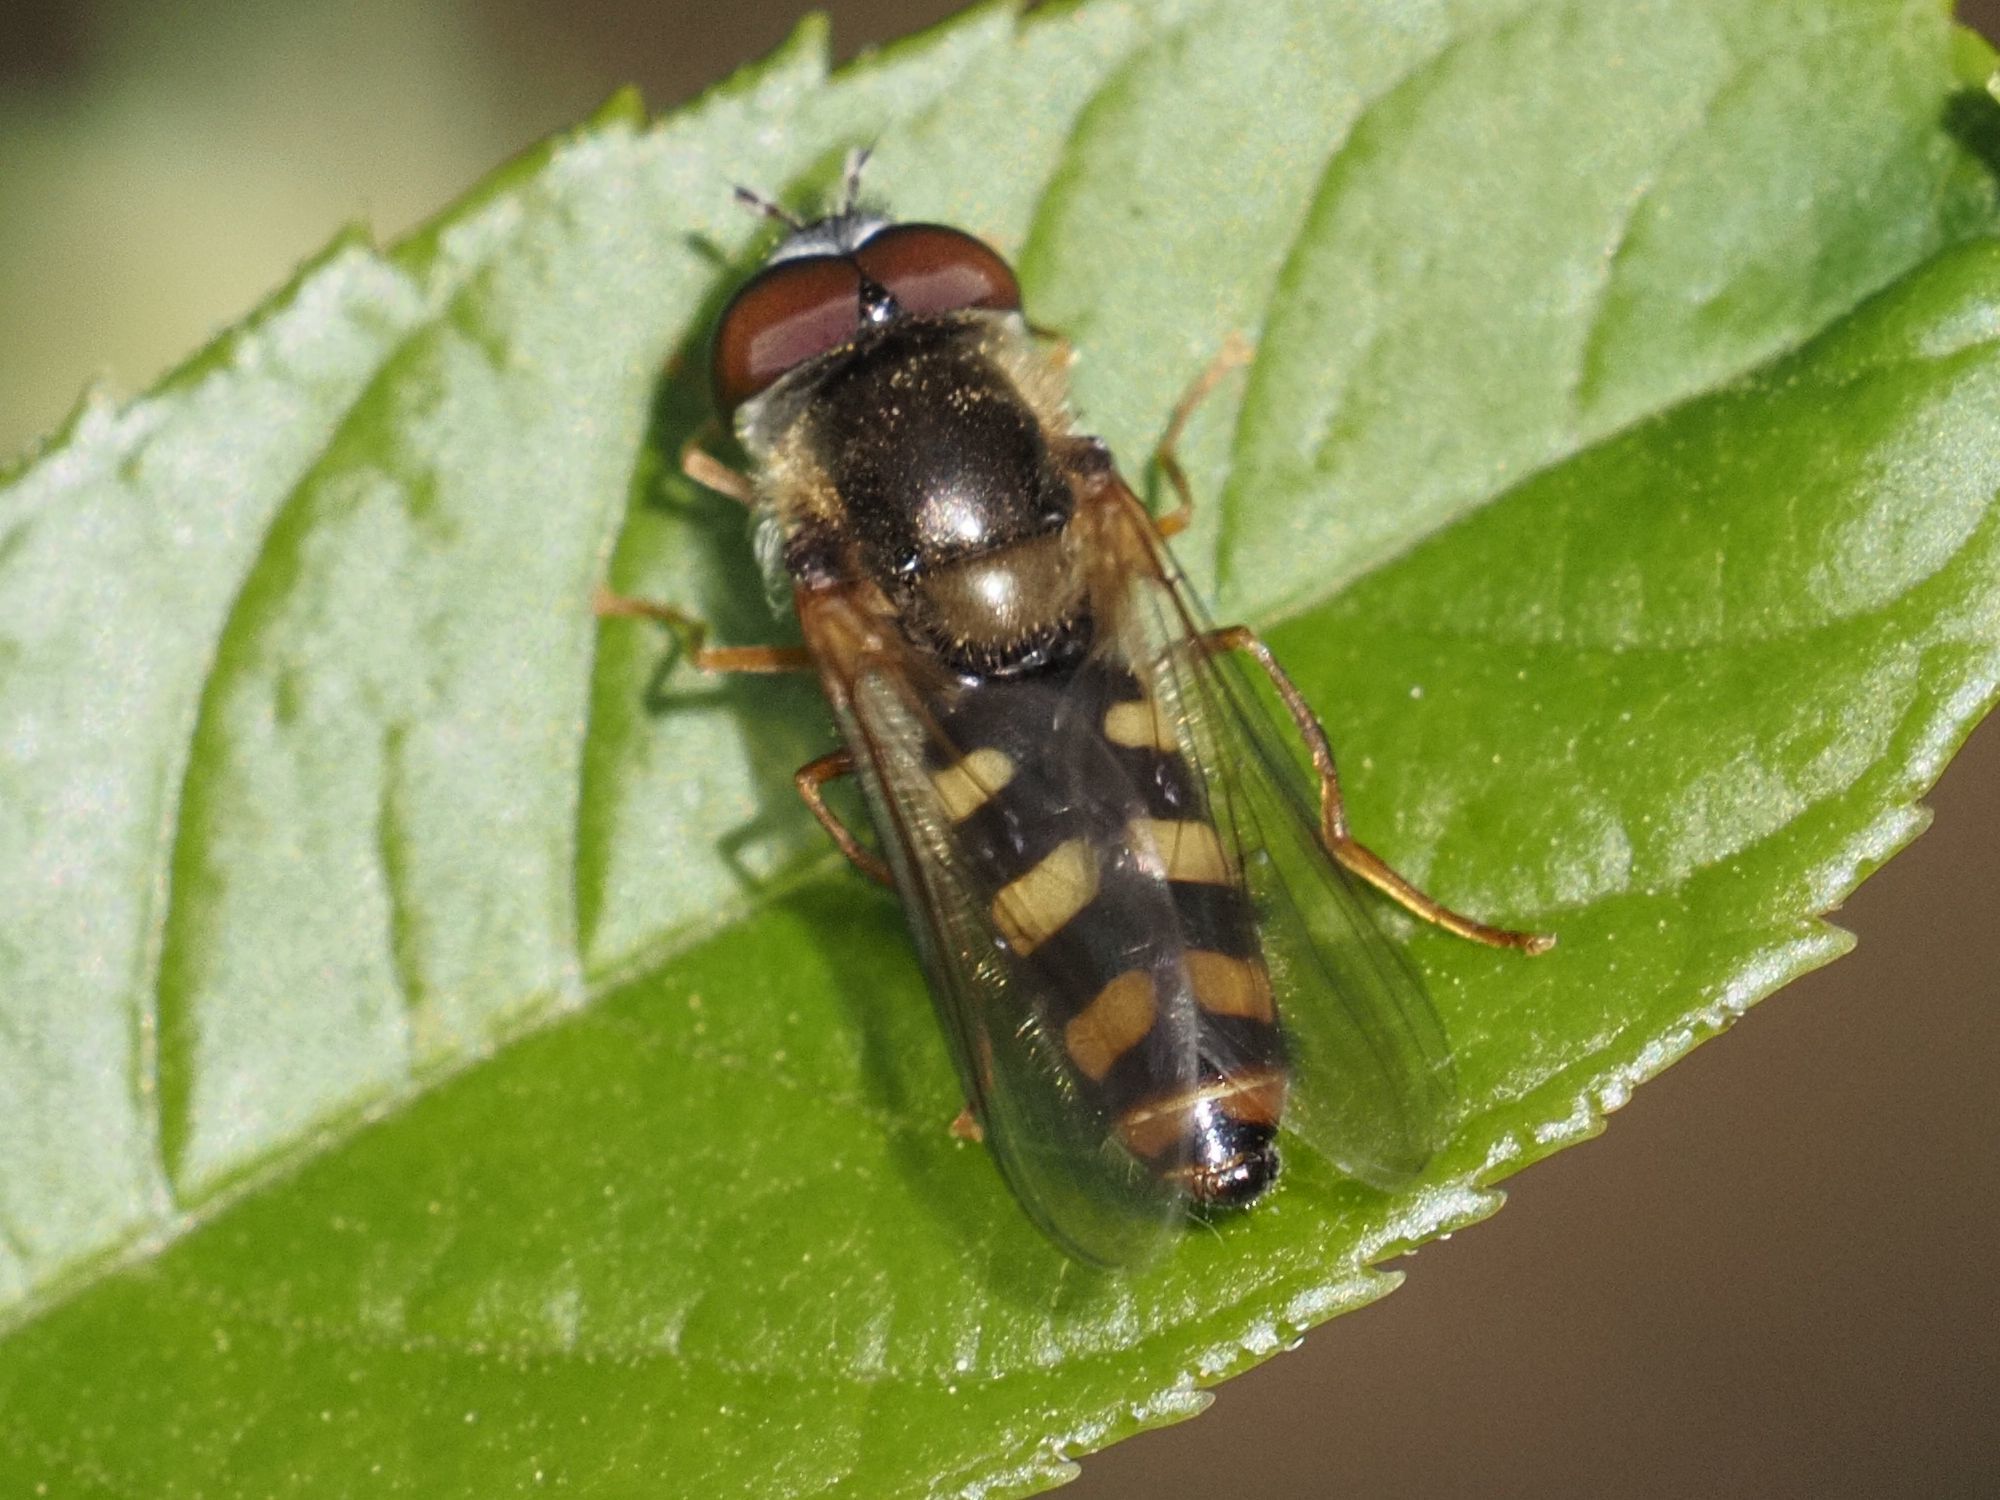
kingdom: Animalia
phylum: Arthropoda
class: Insecta
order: Diptera
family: Syrphidae
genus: Epistrophella
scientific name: Epistrophella euchromus
